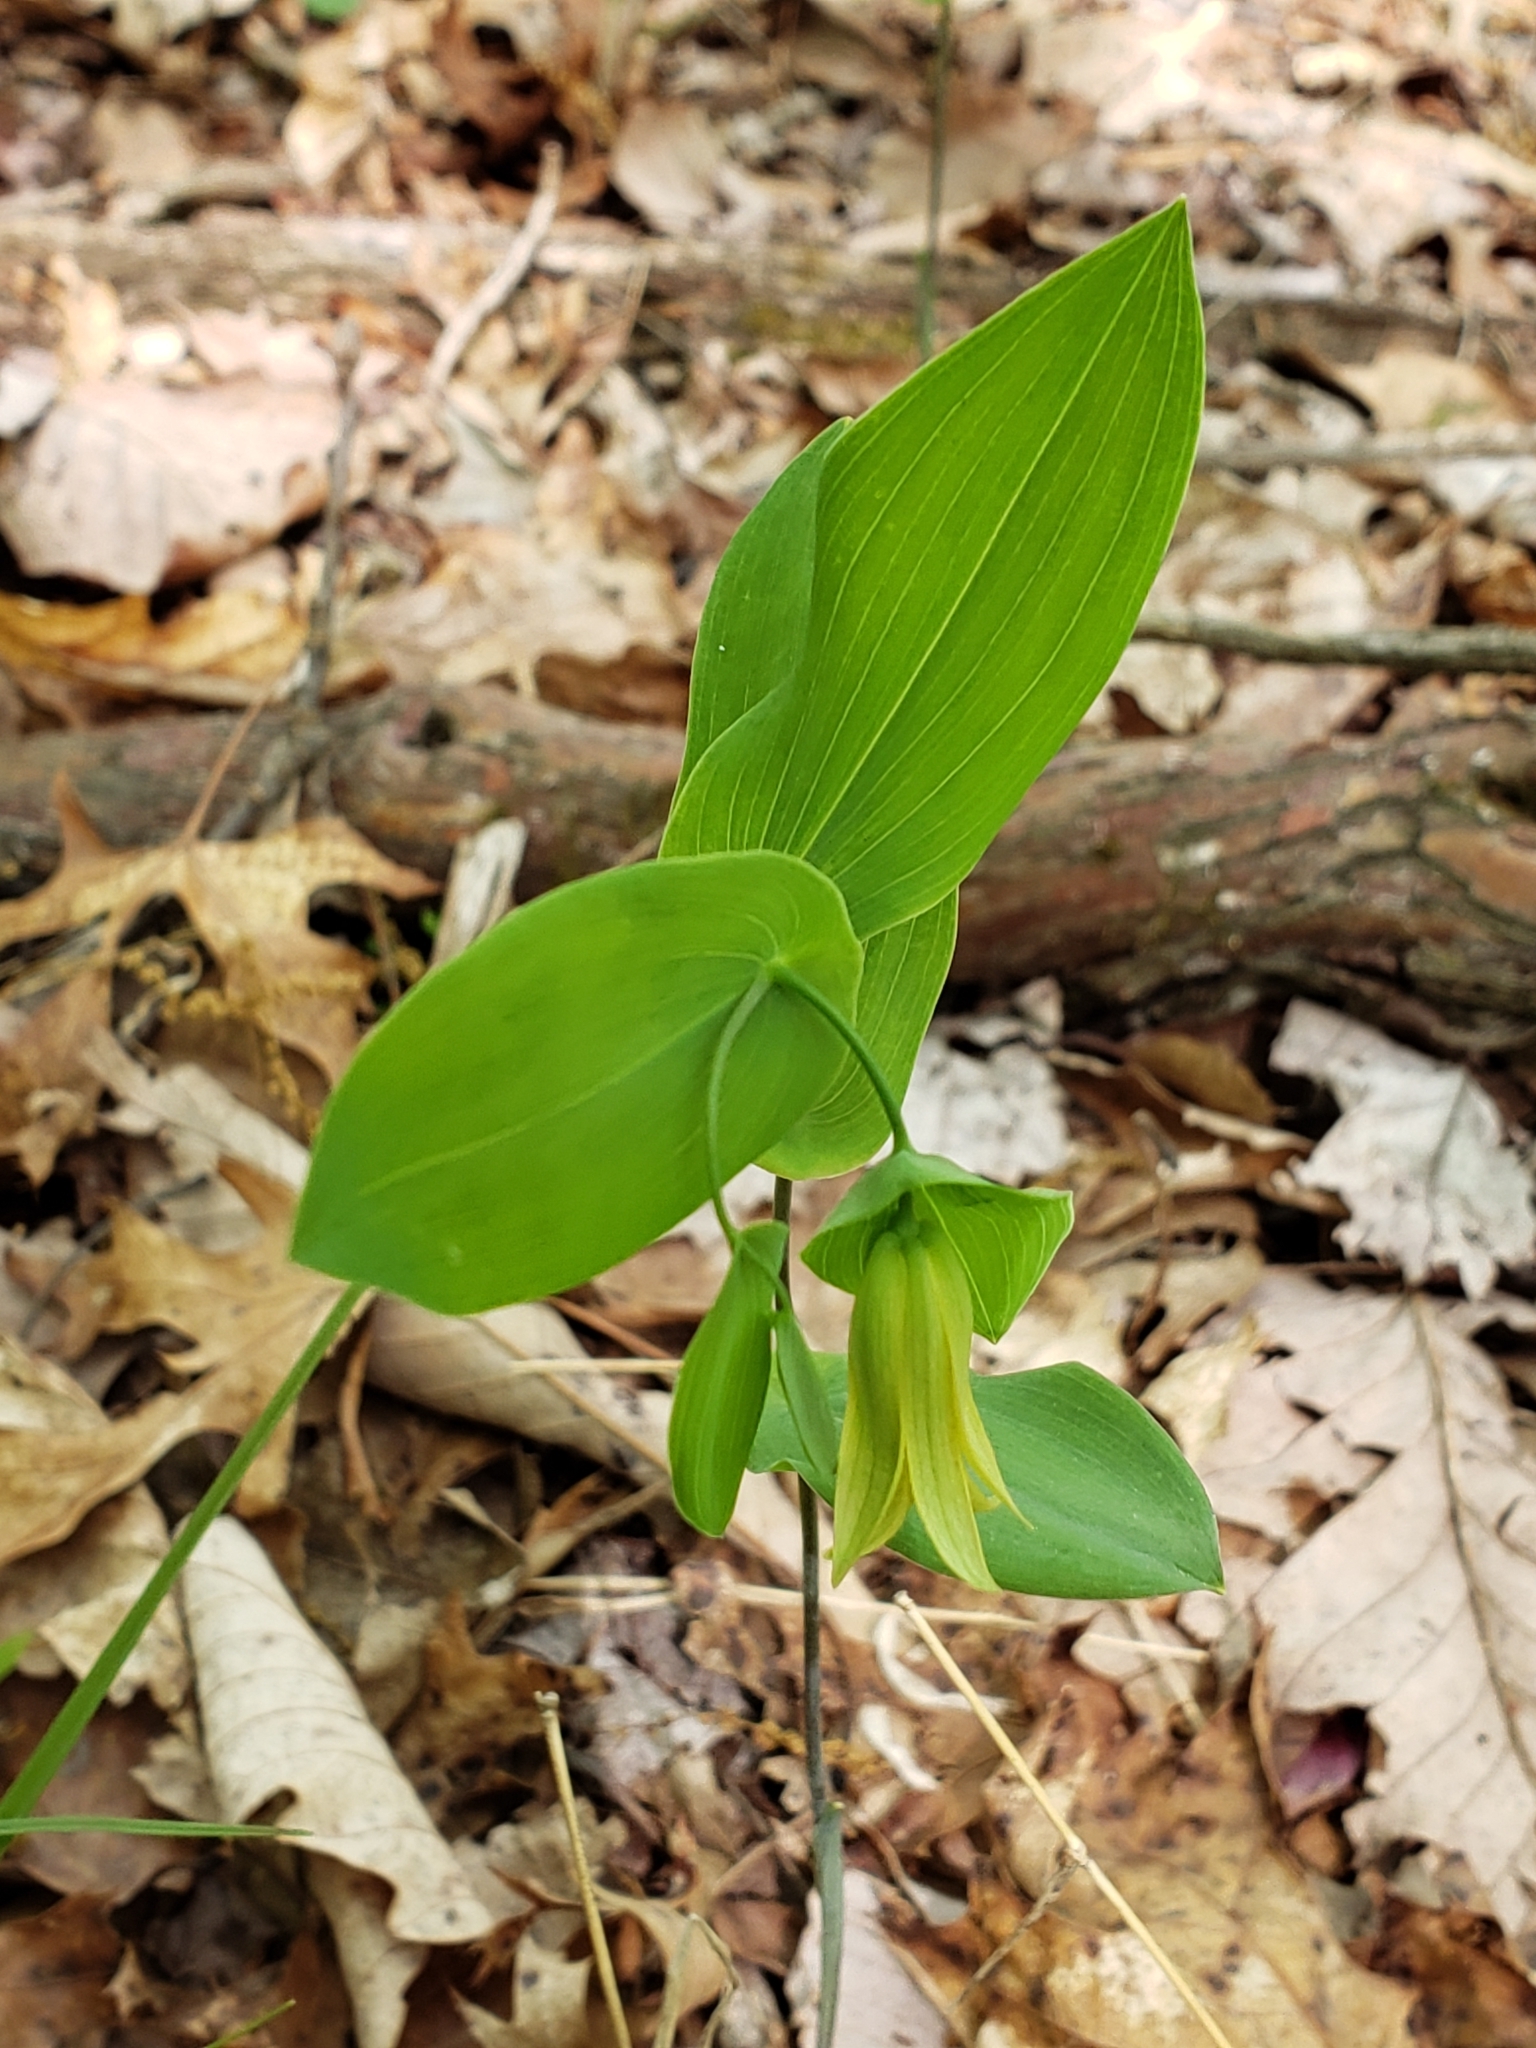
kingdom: Plantae
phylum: Tracheophyta
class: Liliopsida
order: Liliales
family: Colchicaceae
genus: Uvularia
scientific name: Uvularia perfoliata
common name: Perfoliate bellwort
